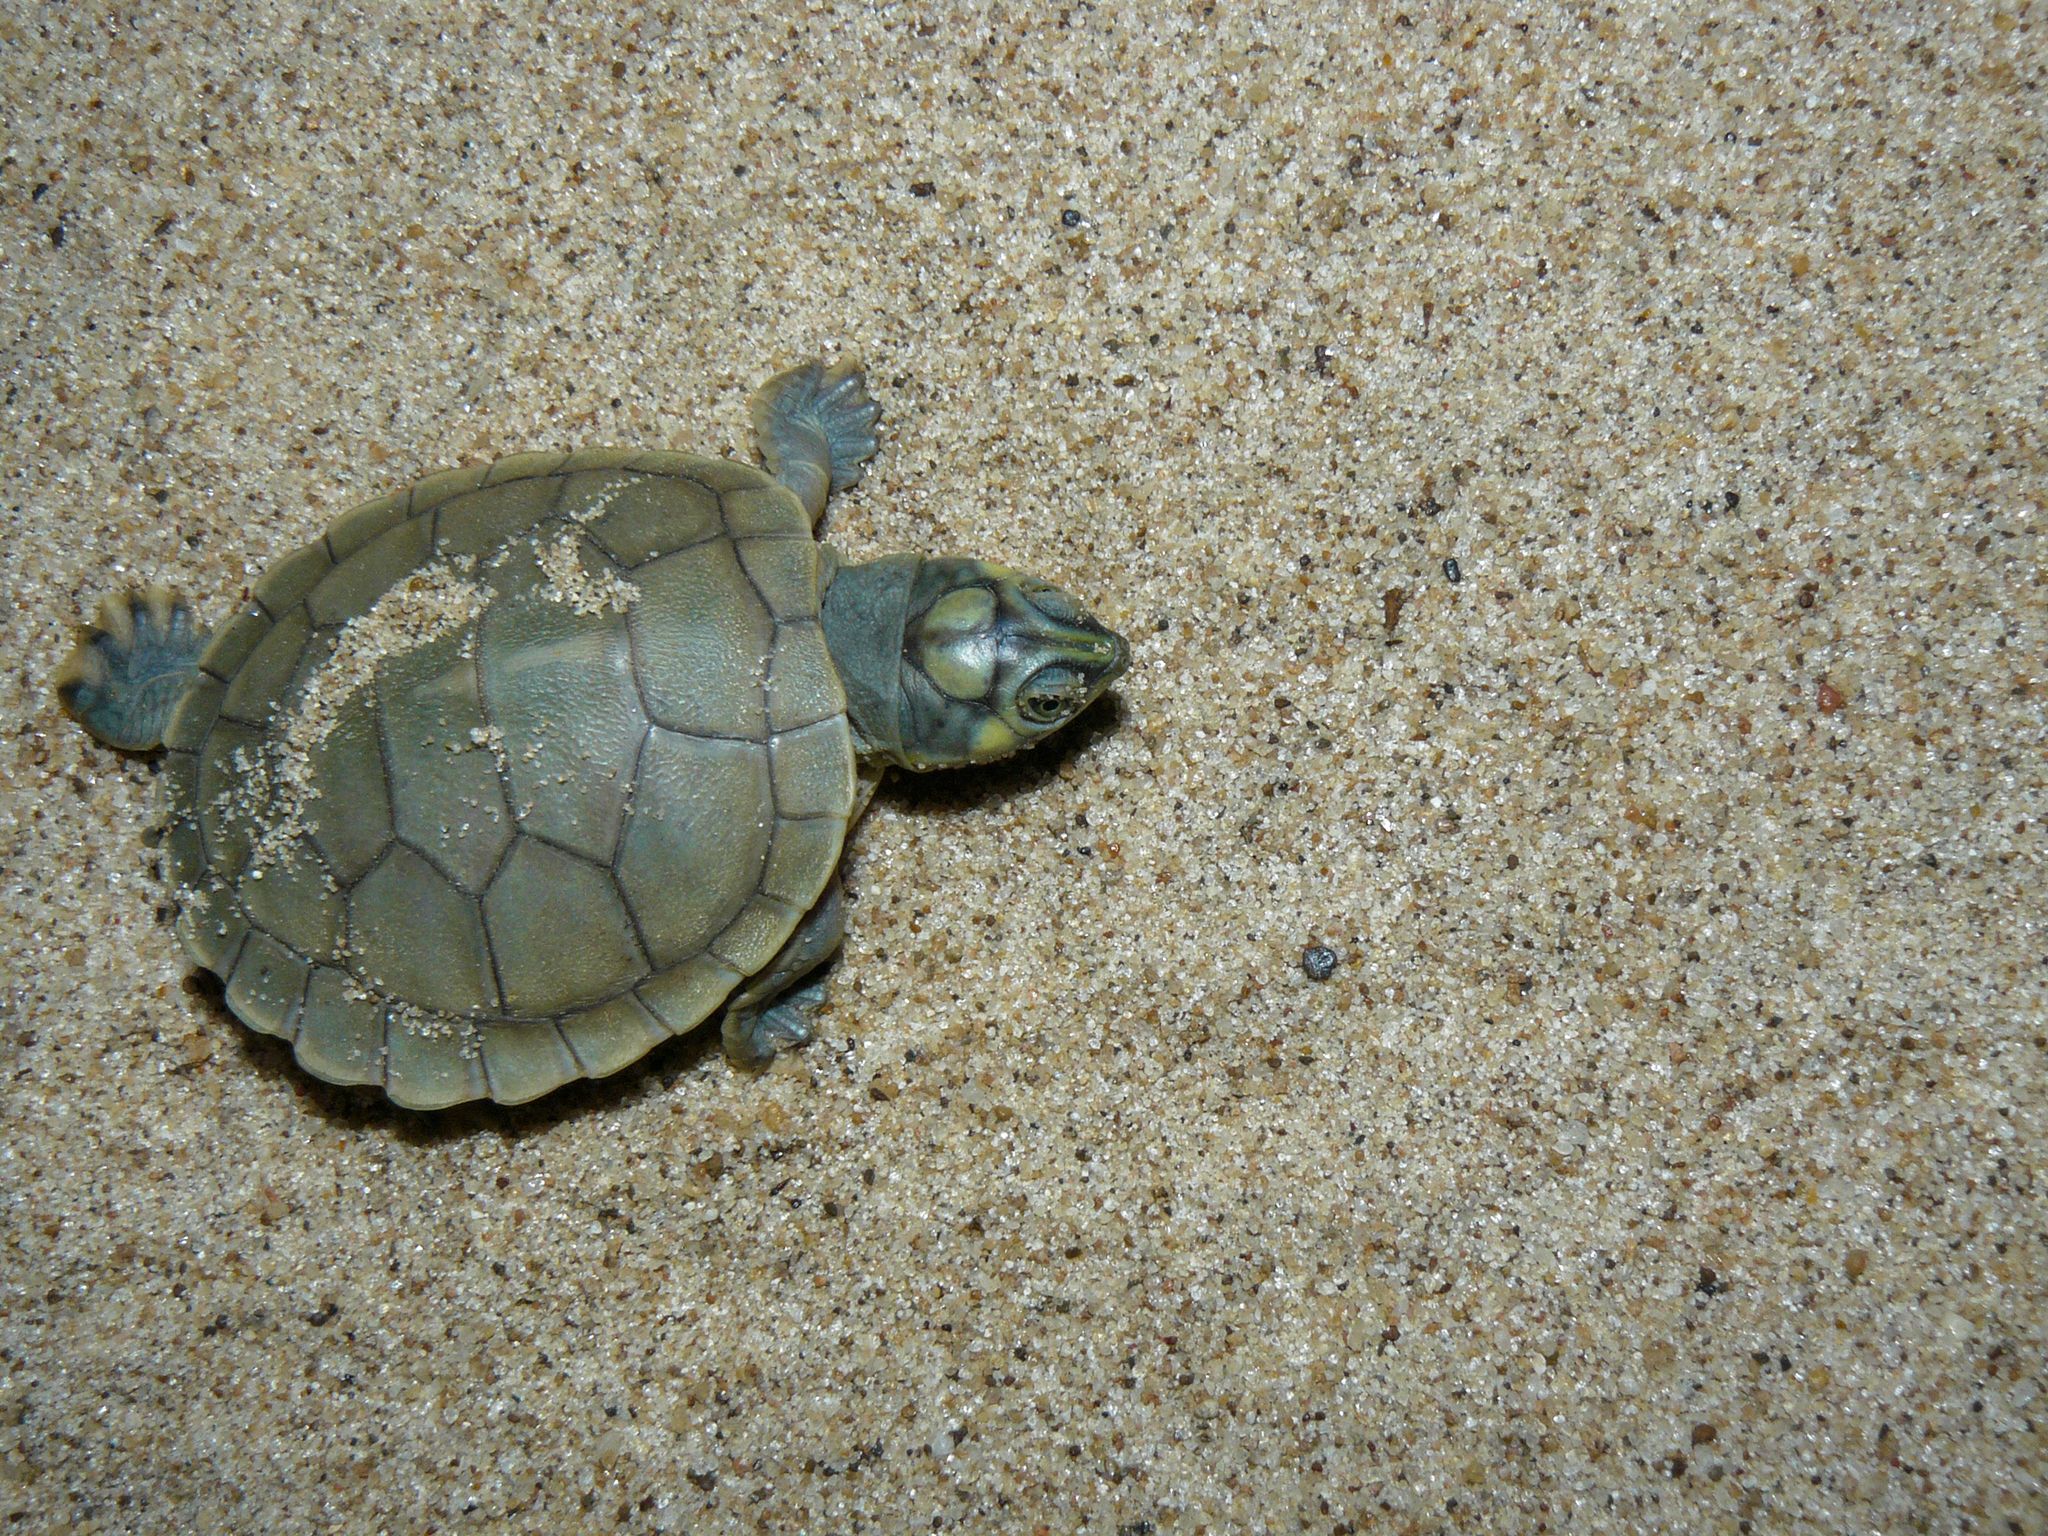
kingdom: Animalia
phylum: Chordata
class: Testudines
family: Podocnemididae
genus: Podocnemis
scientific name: Podocnemis expansa
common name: South american river turtle
